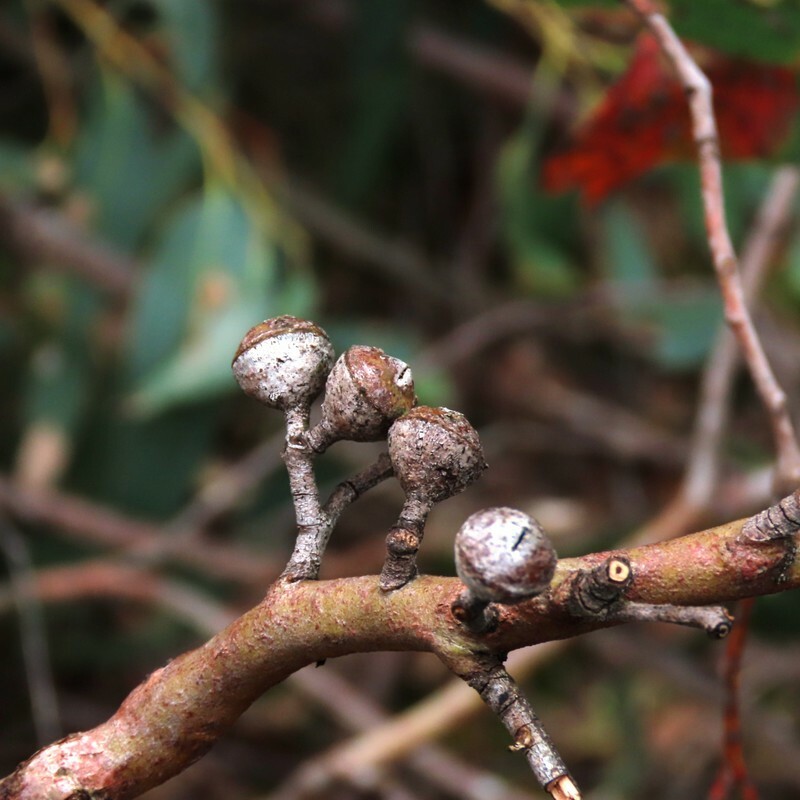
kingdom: Plantae
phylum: Tracheophyta
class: Magnoliopsida
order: Myrtales
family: Myrtaceae
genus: Eucalyptus
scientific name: Eucalyptus macrorhyncha
